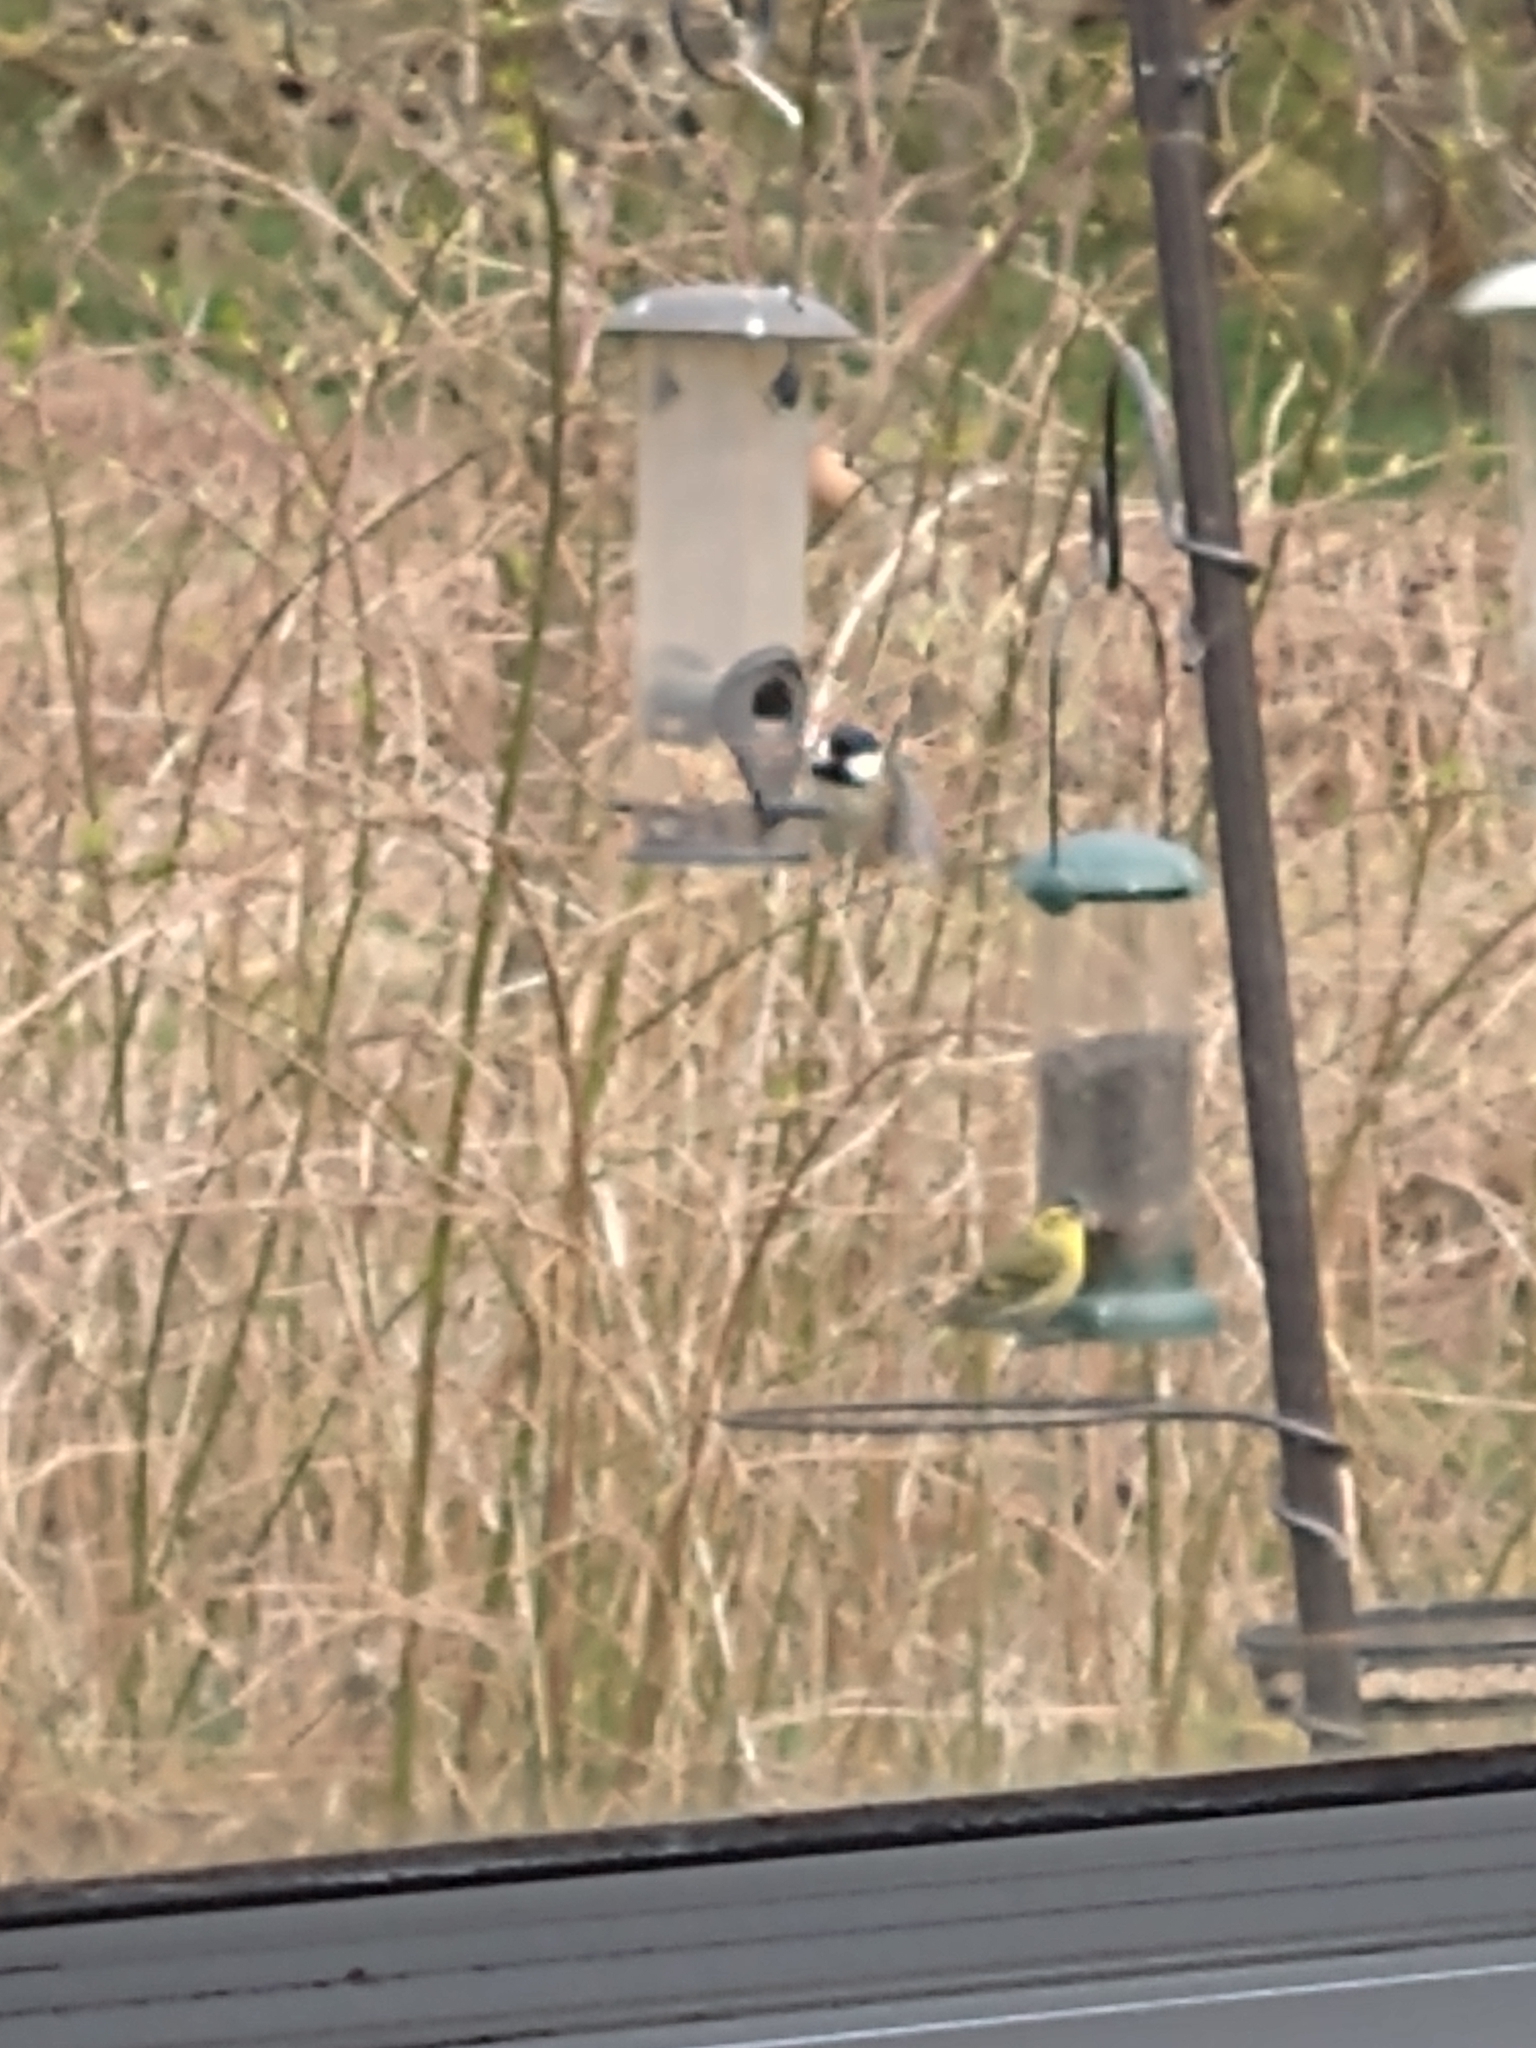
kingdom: Animalia
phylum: Chordata
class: Aves
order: Passeriformes
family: Paridae
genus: Periparus
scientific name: Periparus ater
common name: Coal tit
